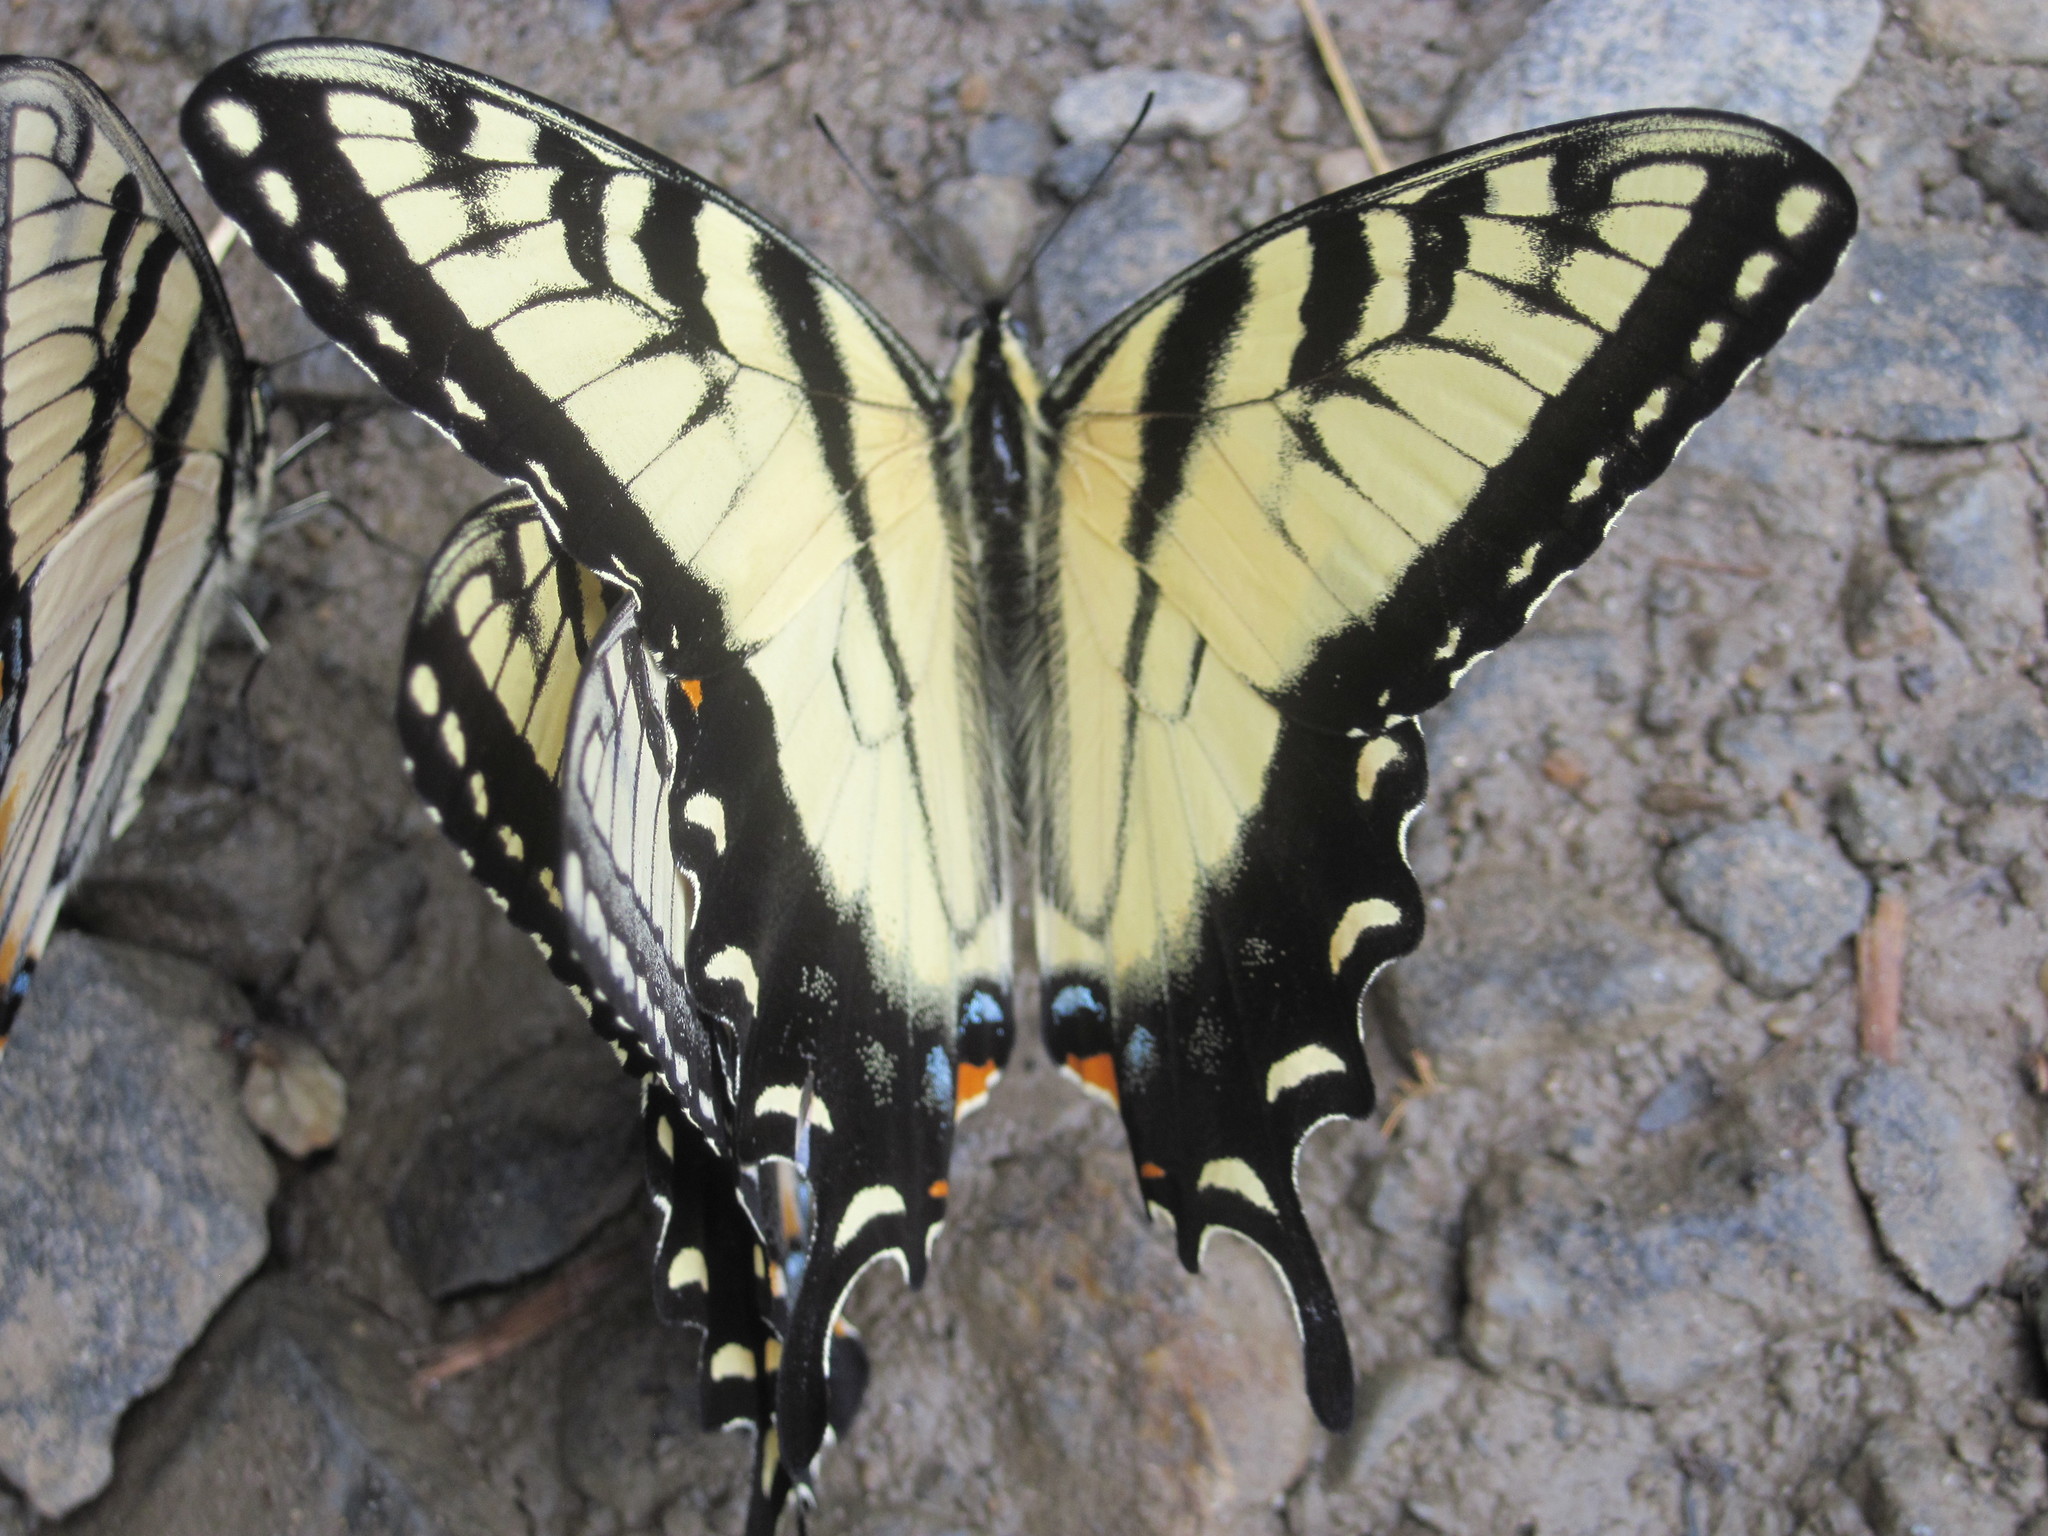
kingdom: Animalia
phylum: Arthropoda
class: Insecta
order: Lepidoptera
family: Papilionidae
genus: Papilio
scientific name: Papilio glaucus
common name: Tiger swallowtail
